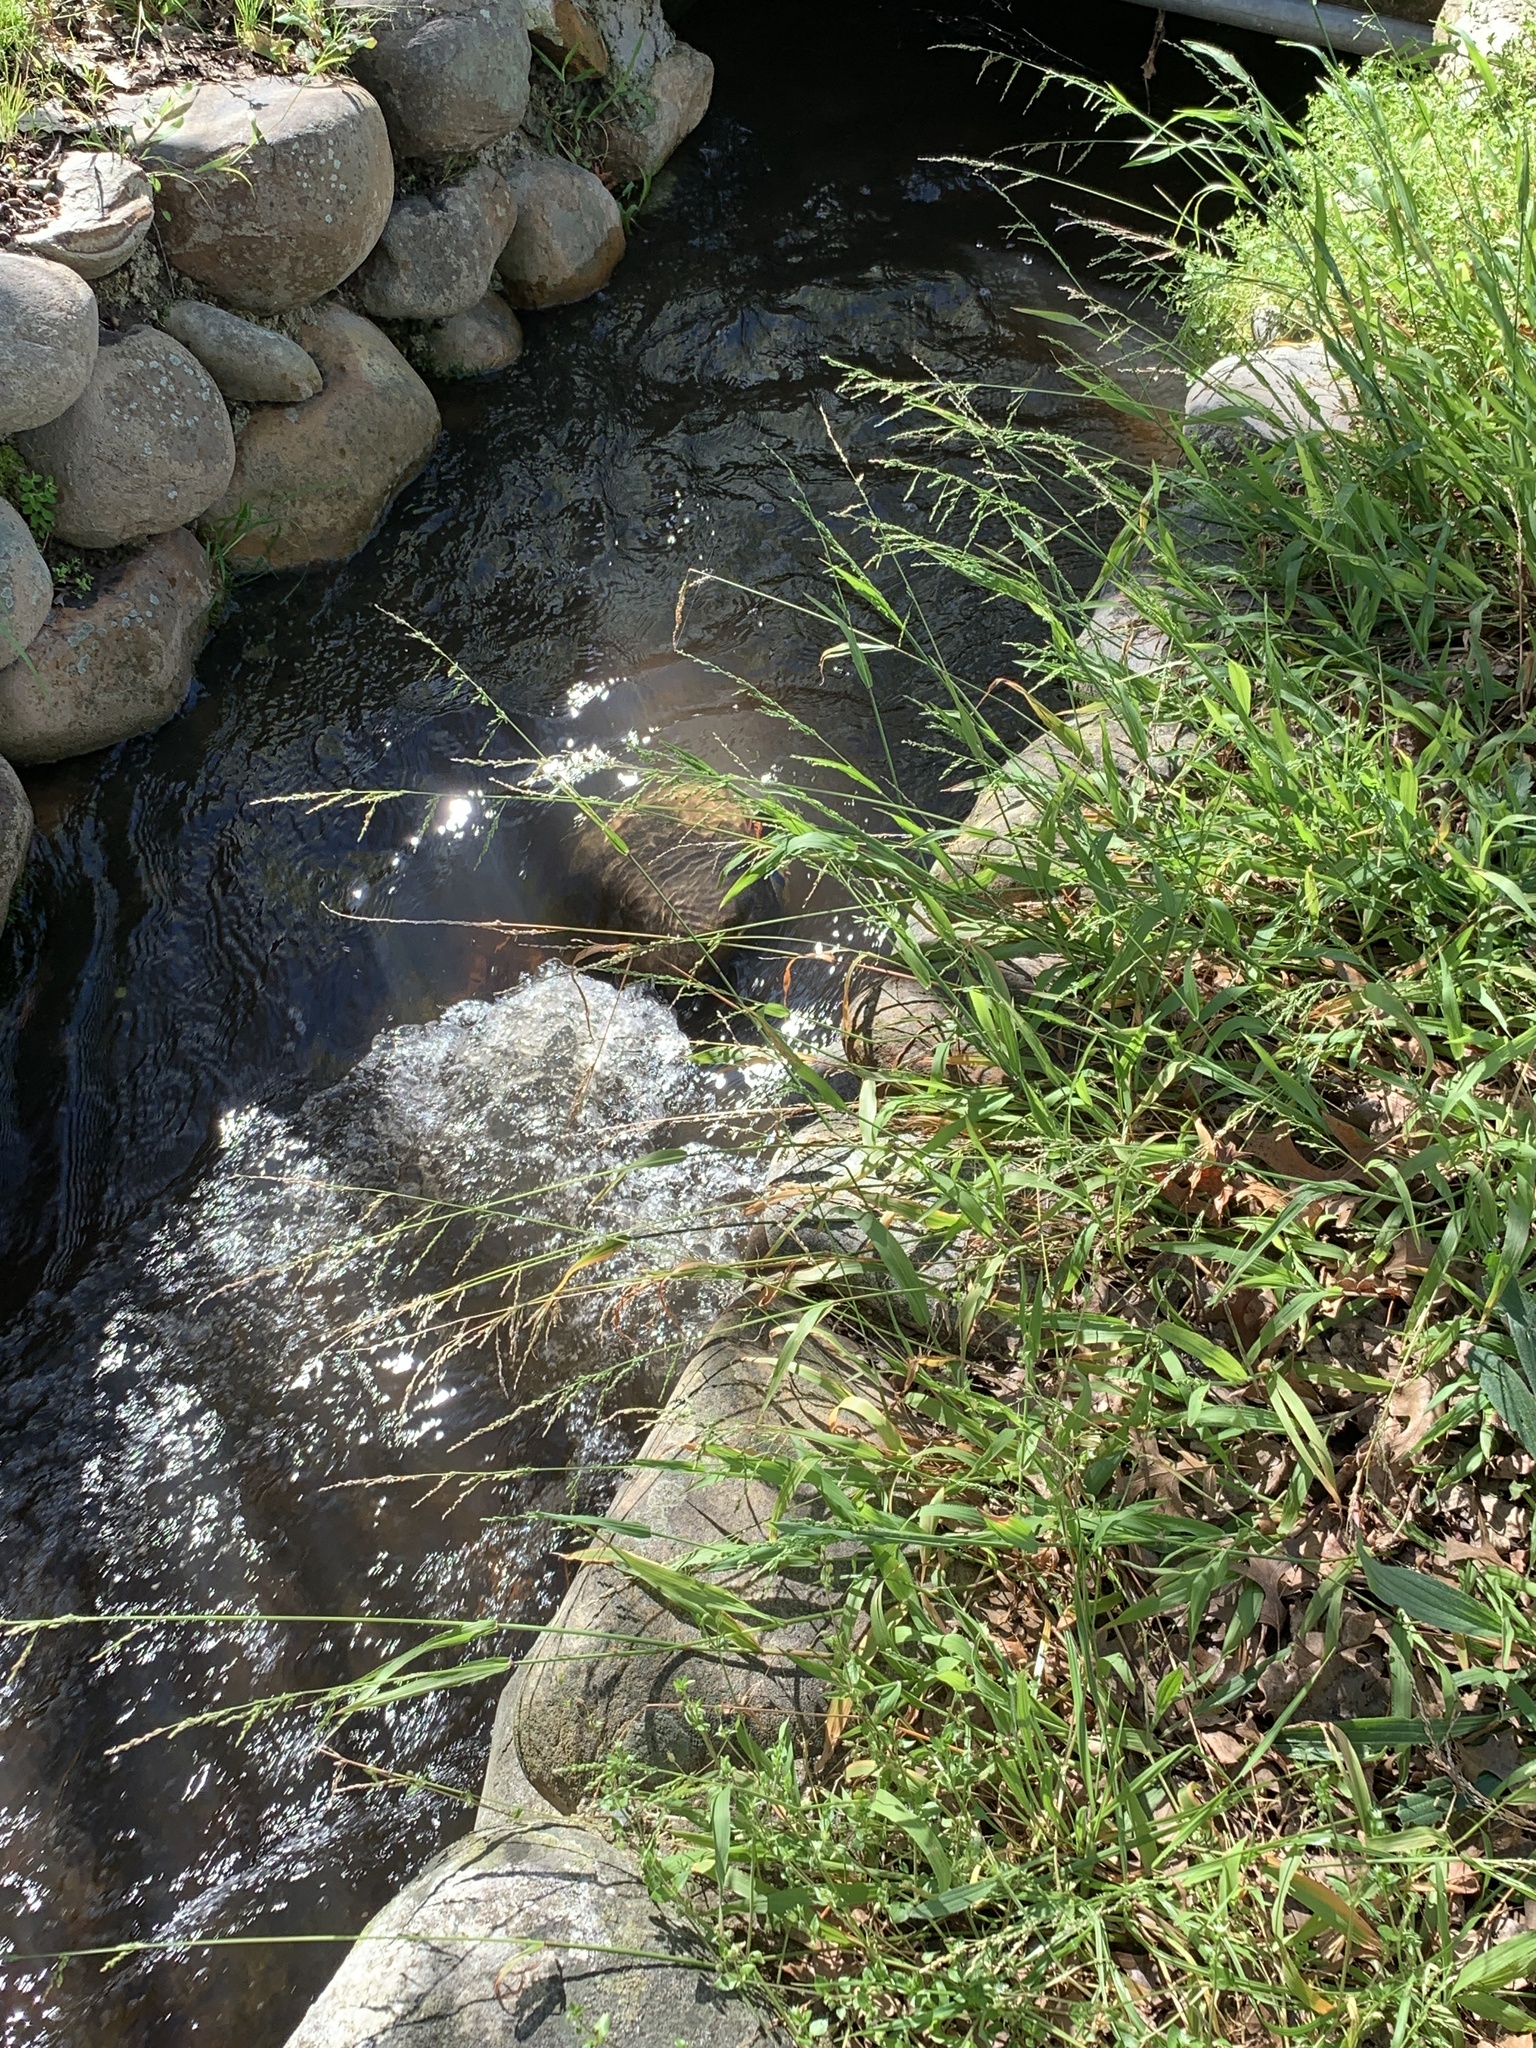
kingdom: Plantae
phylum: Tracheophyta
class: Liliopsida
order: Poales
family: Poaceae
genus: Ehrharta
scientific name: Ehrharta erecta
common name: Panic veldtgrass
